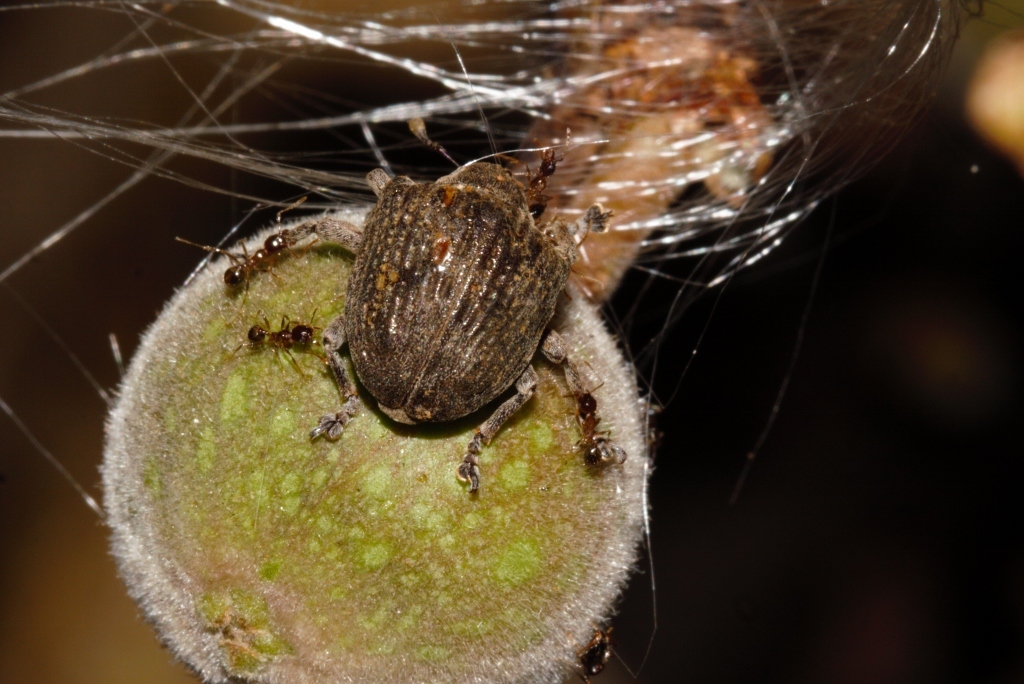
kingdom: Animalia
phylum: Arthropoda
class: Insecta
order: Coleoptera
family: Curculionidae
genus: Omophorus
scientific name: Omophorus stomachosus
